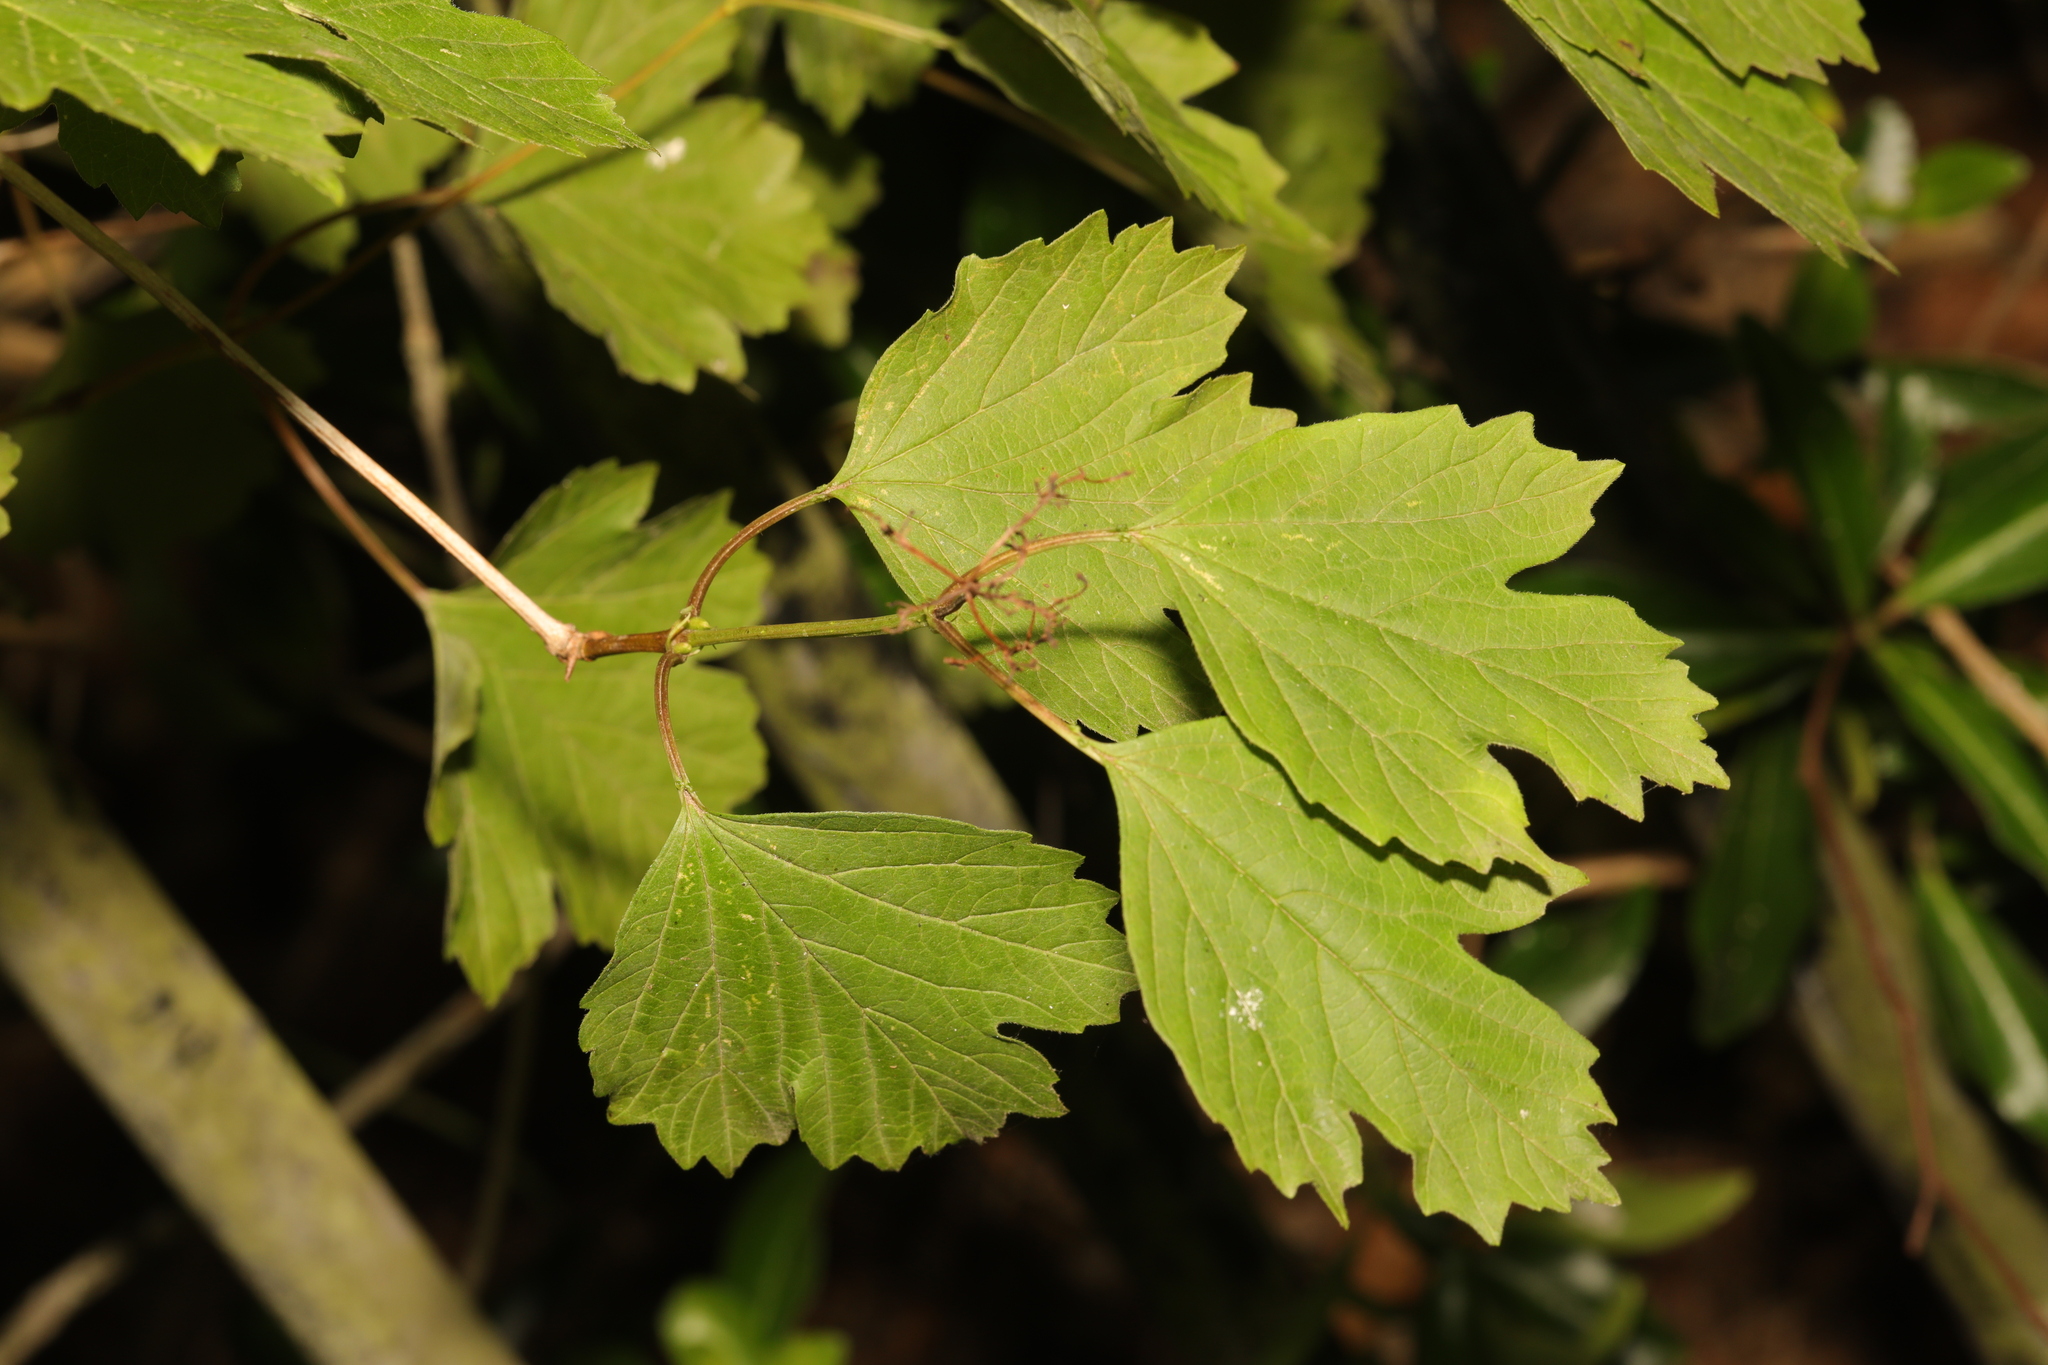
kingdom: Plantae
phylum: Tracheophyta
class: Magnoliopsida
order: Dipsacales
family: Viburnaceae
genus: Viburnum
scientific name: Viburnum opulus
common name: Guelder-rose
